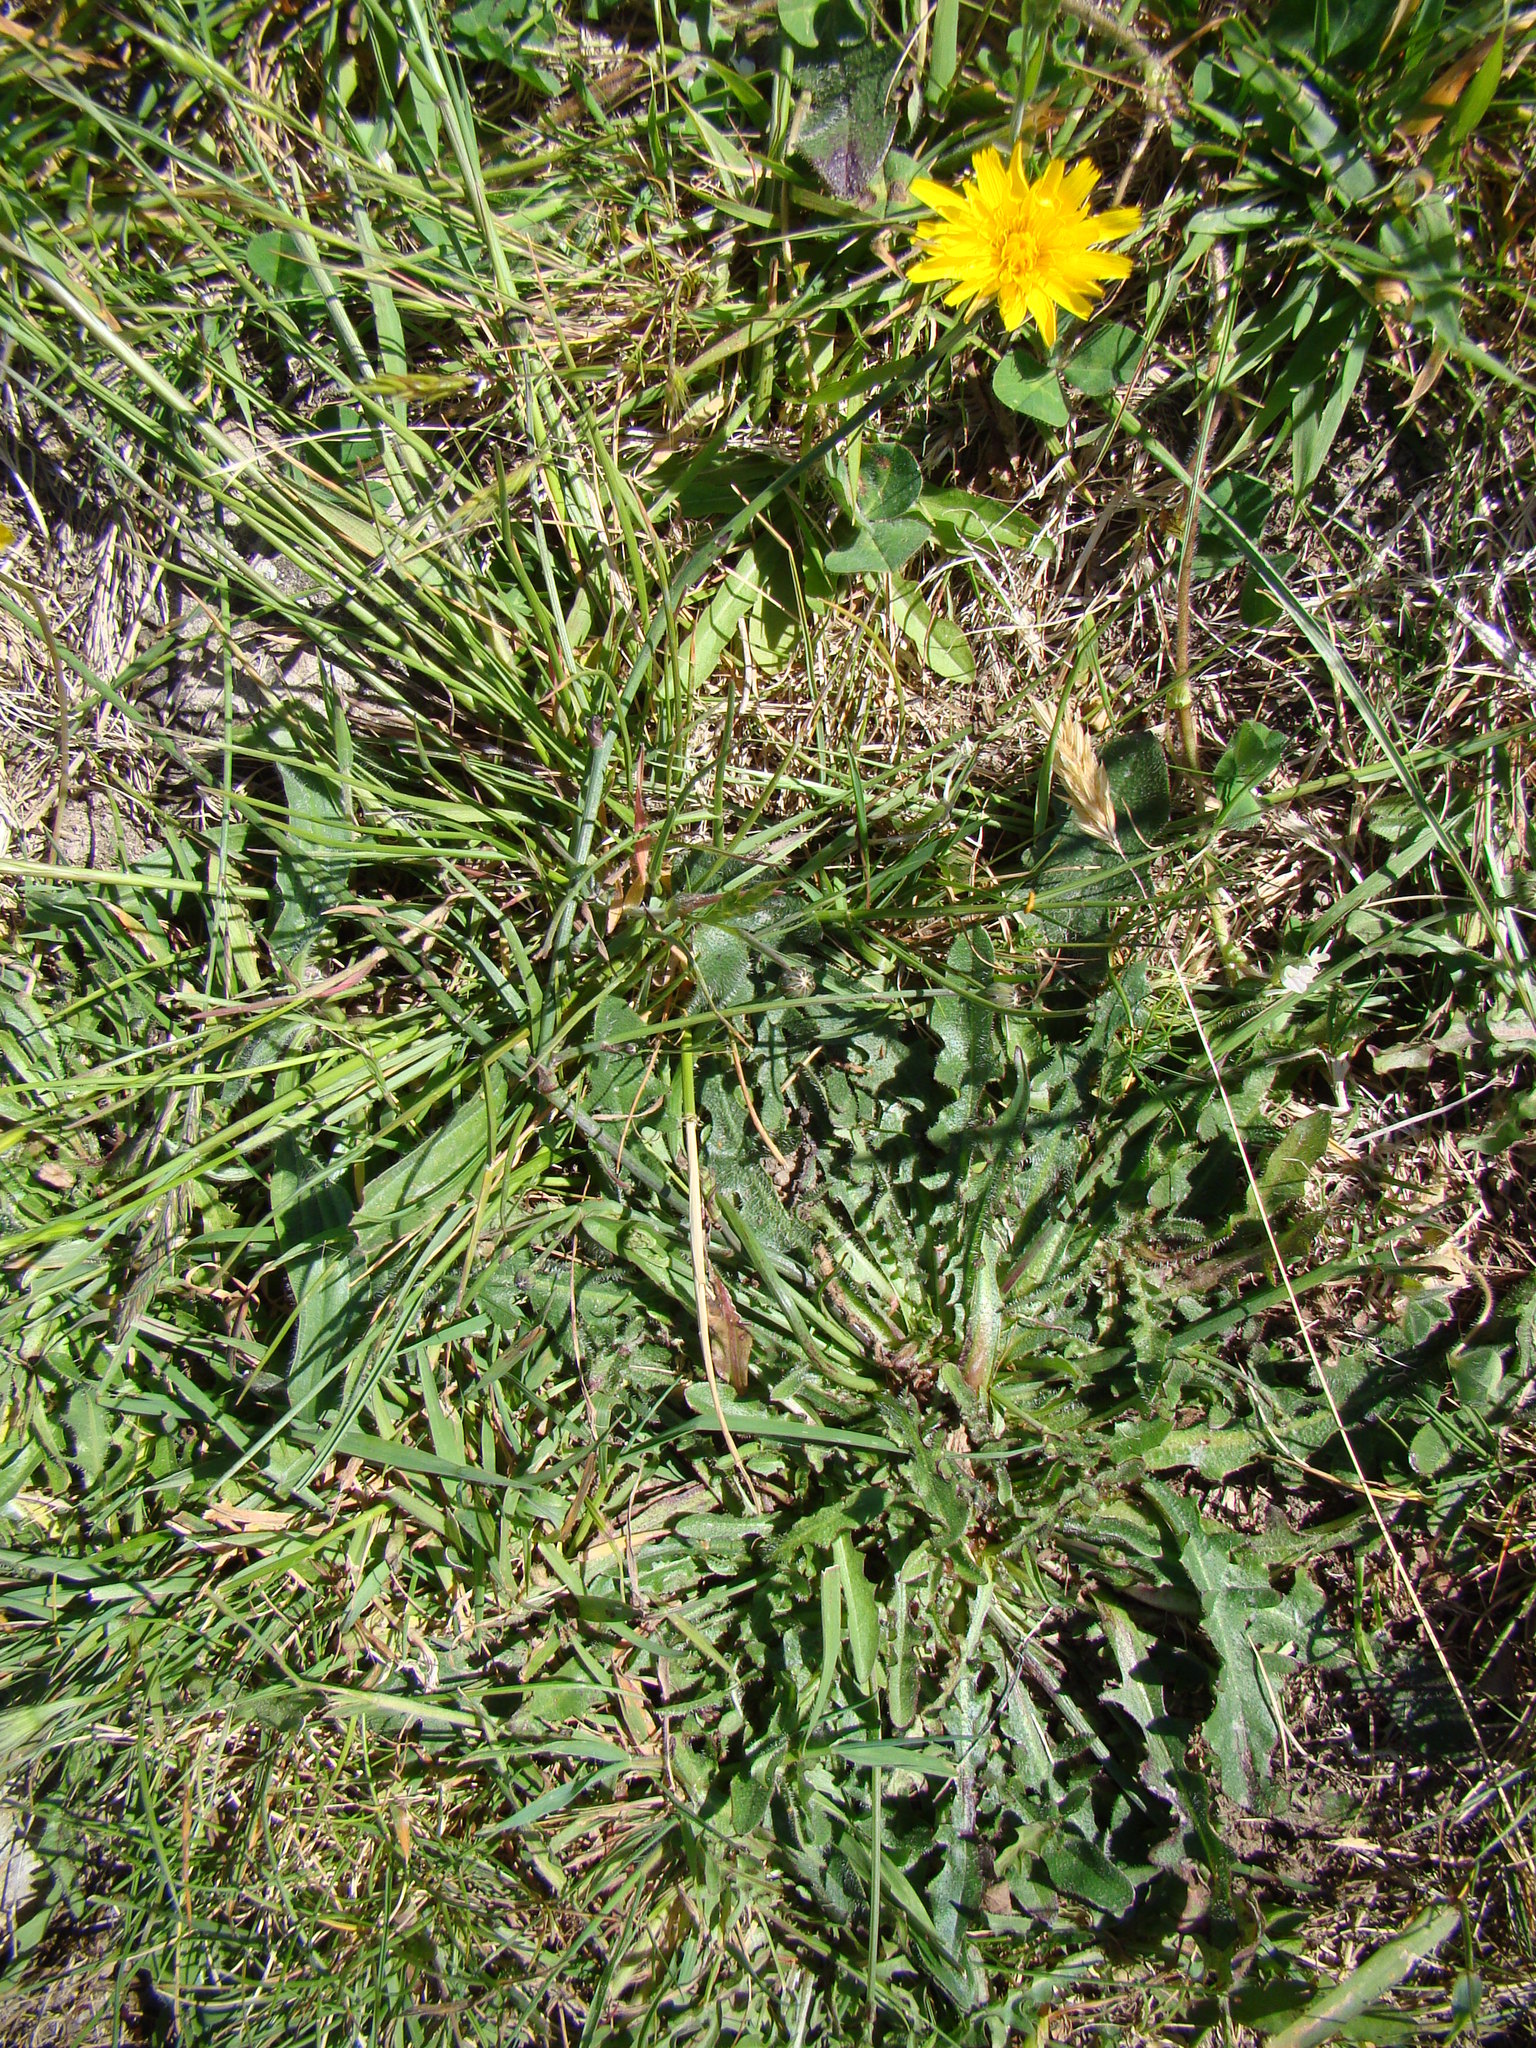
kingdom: Plantae
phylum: Tracheophyta
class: Magnoliopsida
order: Asterales
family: Asteraceae
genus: Hypochaeris
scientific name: Hypochaeris radicata
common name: Flatweed
